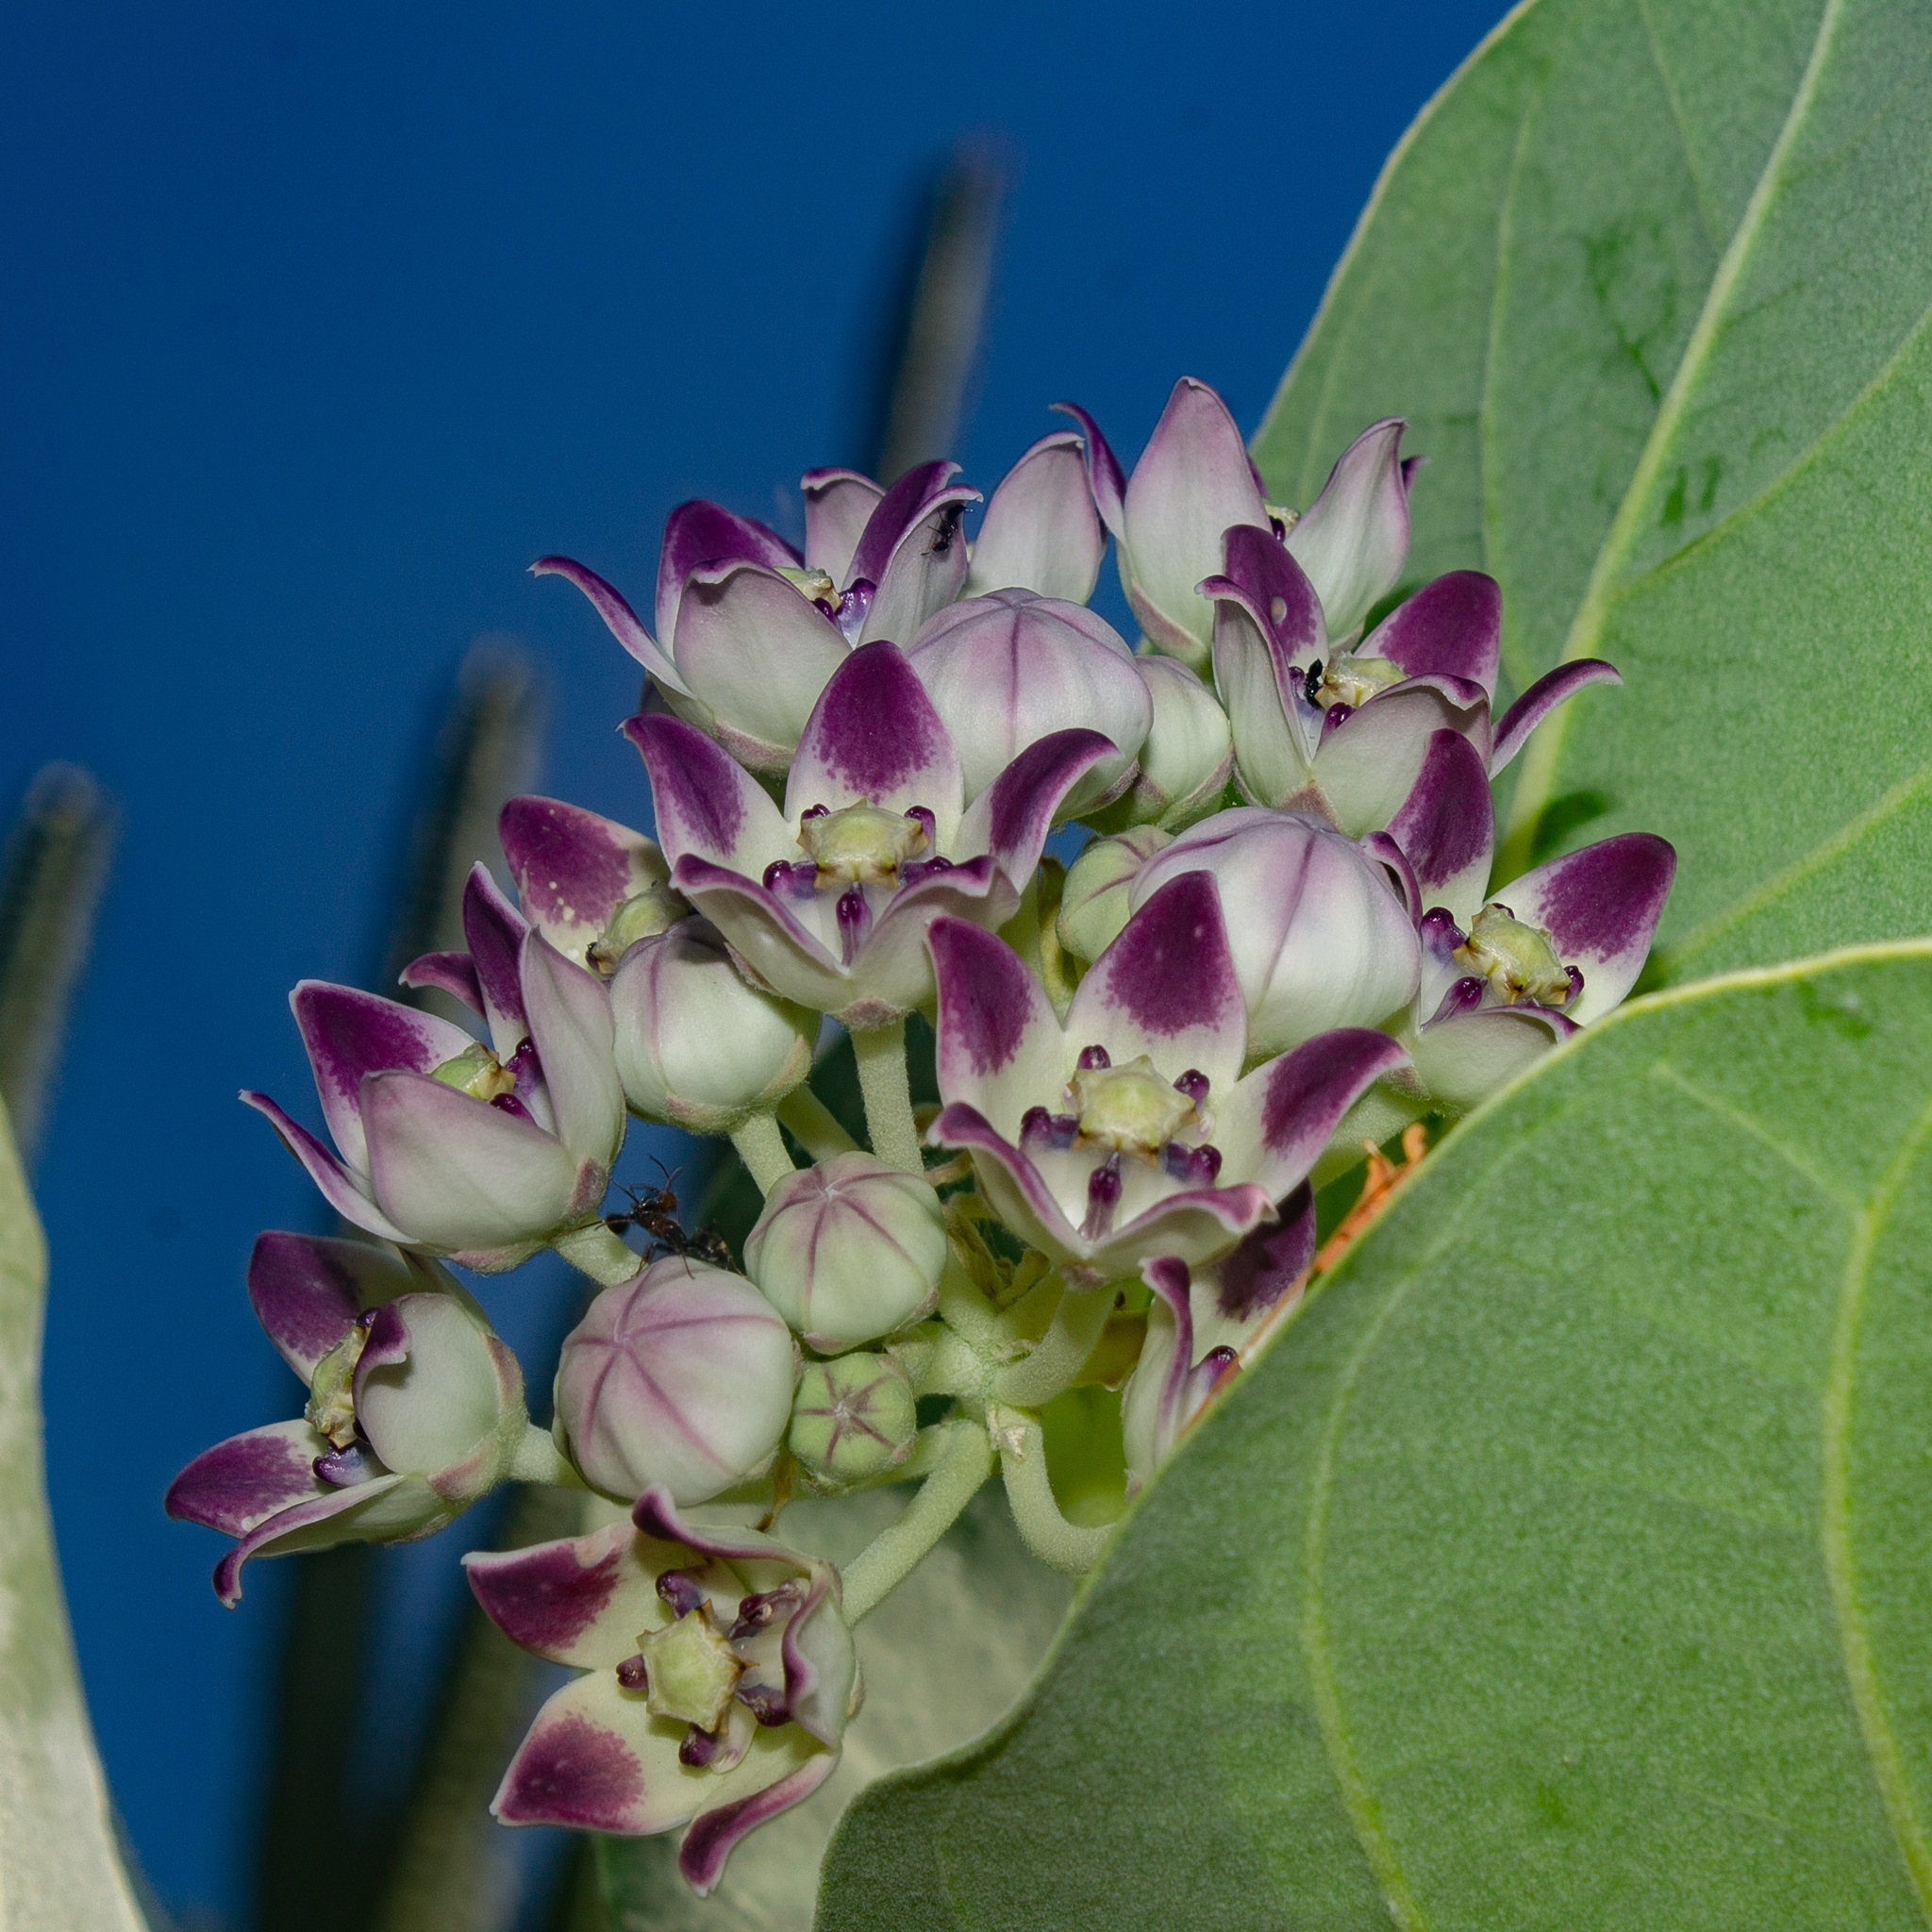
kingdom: Plantae
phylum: Tracheophyta
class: Magnoliopsida
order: Gentianales
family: Apocynaceae
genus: Calotropis
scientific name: Calotropis procera
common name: Roostertree
